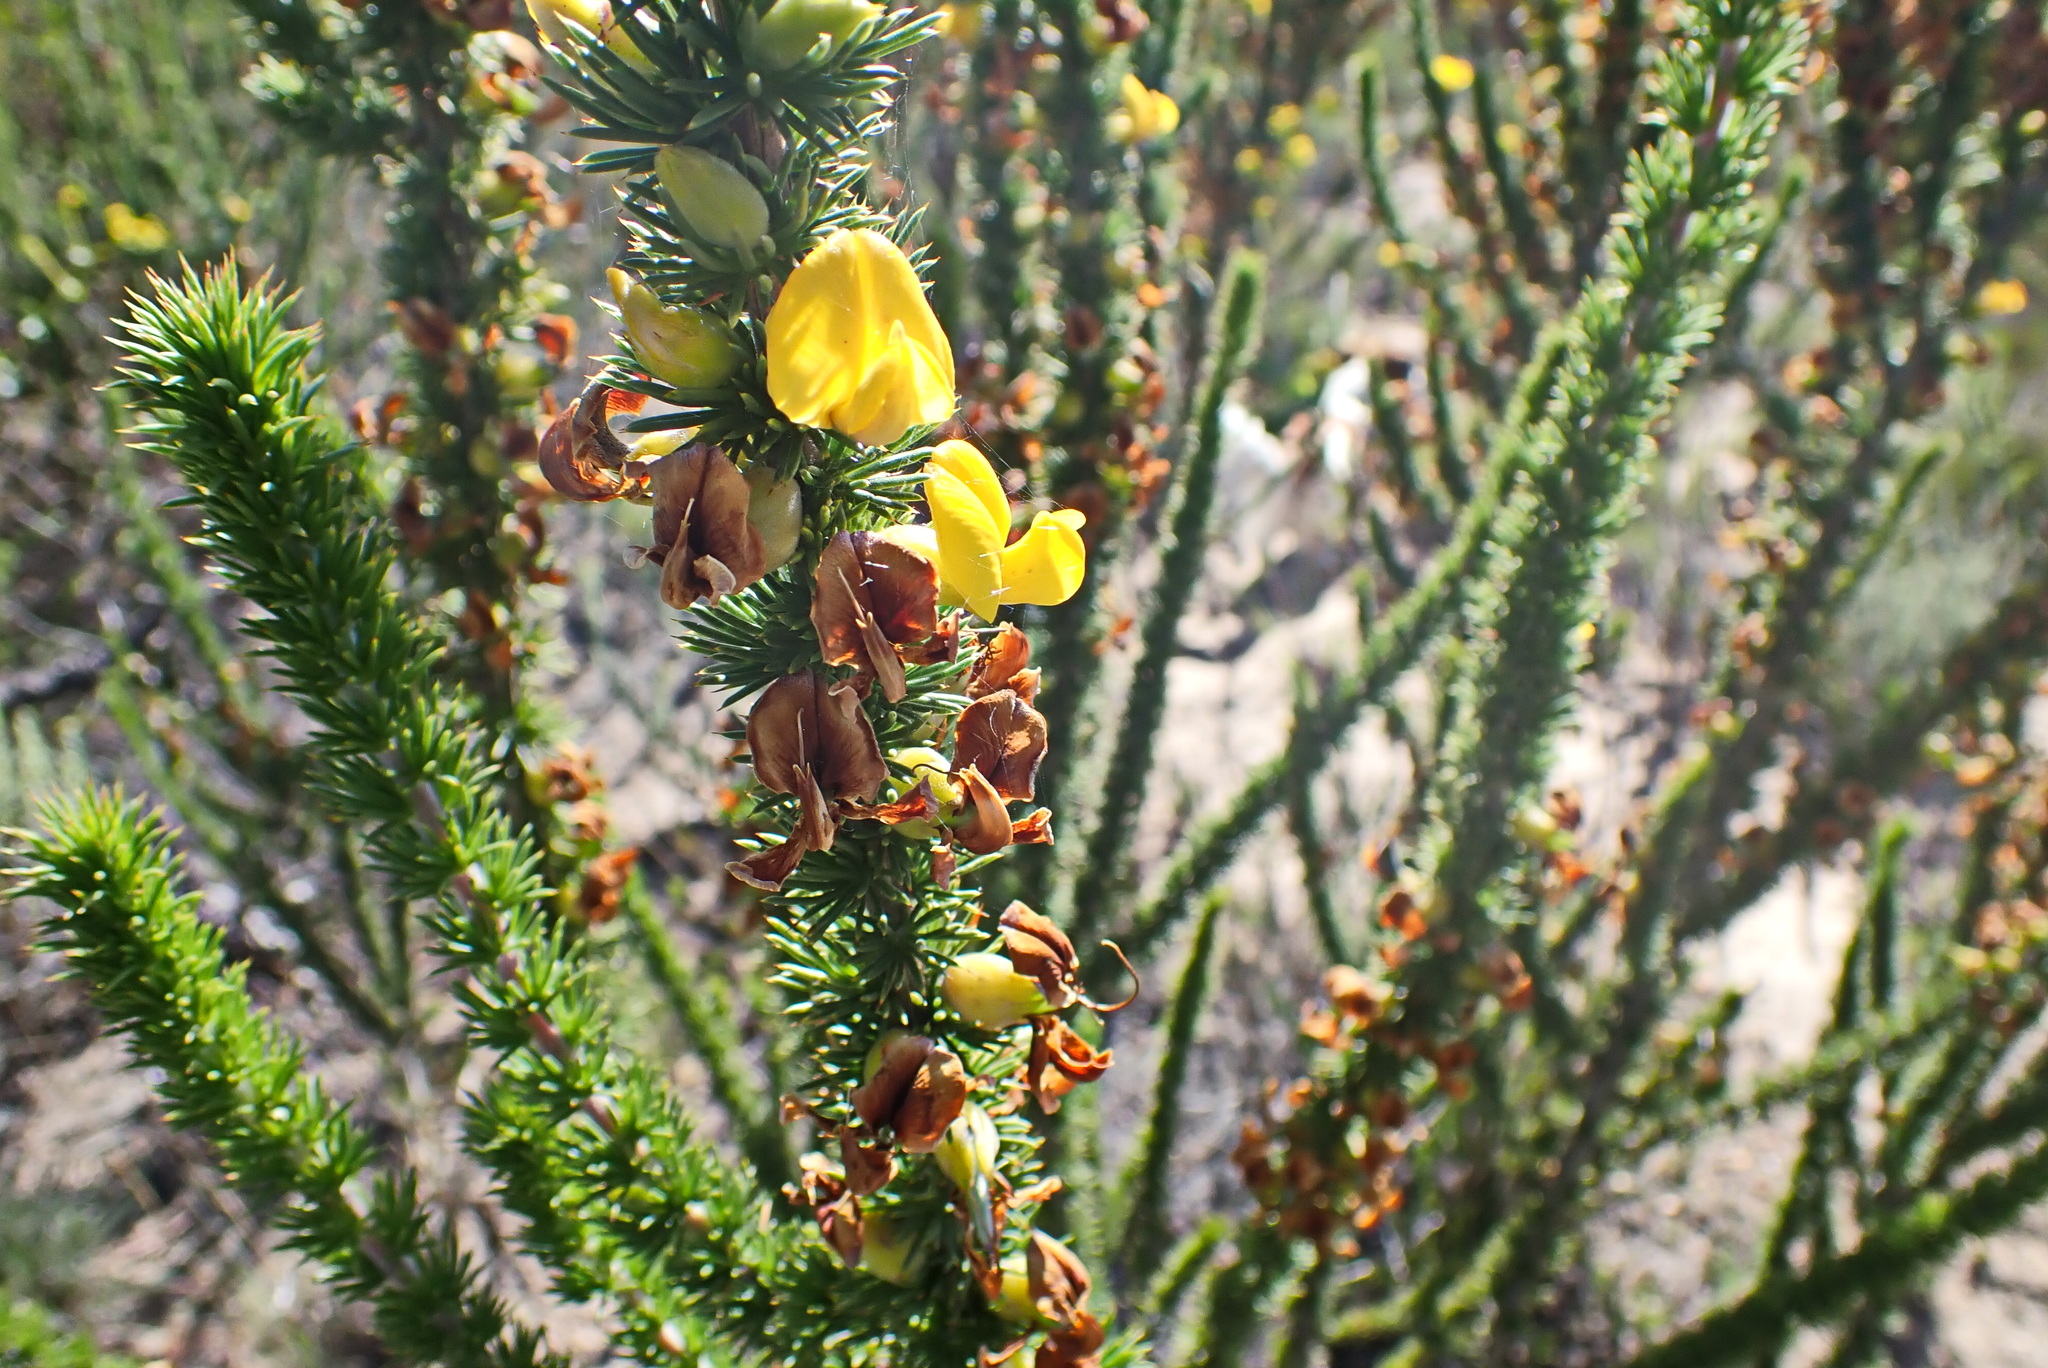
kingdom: Plantae
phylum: Tracheophyta
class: Magnoliopsida
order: Fabales
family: Fabaceae
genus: Aspalathus
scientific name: Aspalathus sceptrumaureum
